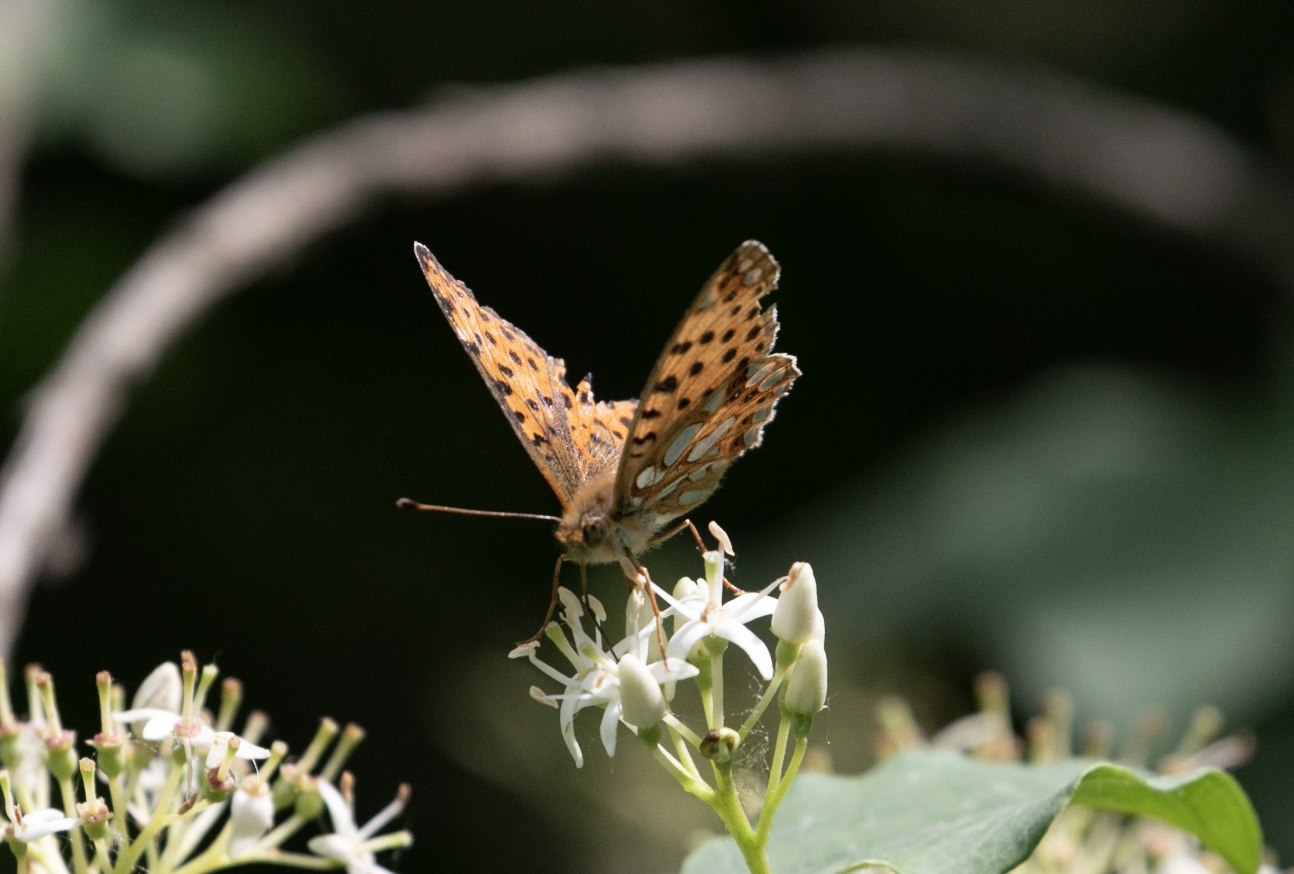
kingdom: Animalia
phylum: Arthropoda
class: Insecta
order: Lepidoptera
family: Nymphalidae
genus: Issoria
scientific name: Issoria lathonia
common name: Queen of spain fritillary
